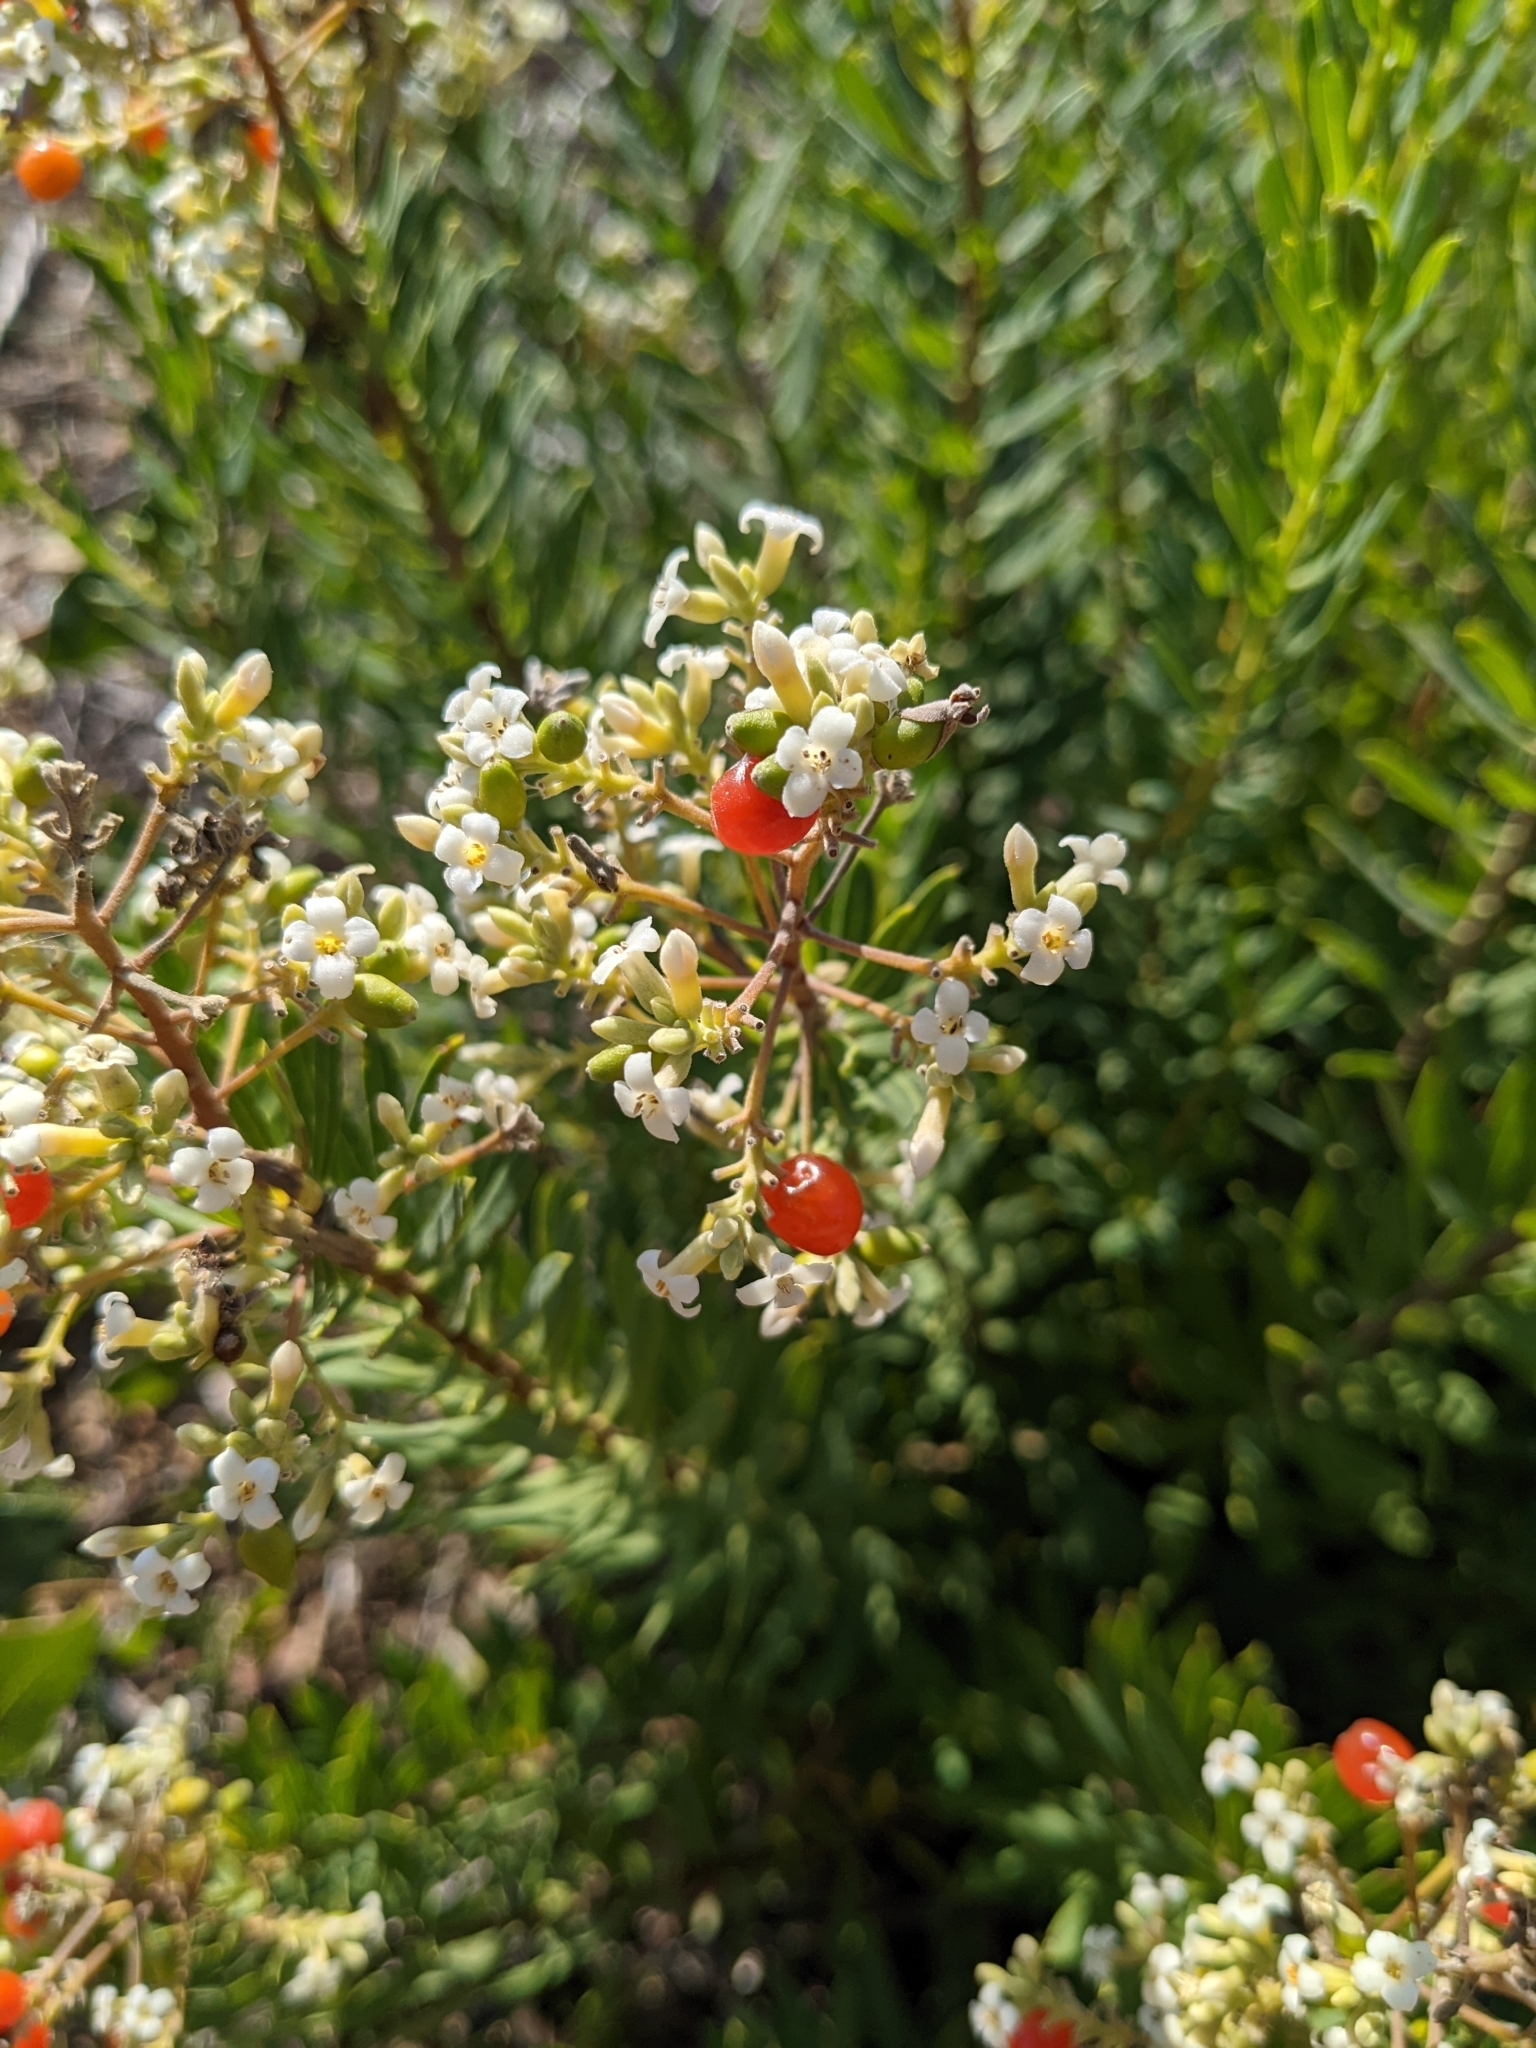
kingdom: Plantae
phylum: Tracheophyta
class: Magnoliopsida
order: Malvales
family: Thymelaeaceae
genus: Daphne
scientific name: Daphne gnidium
